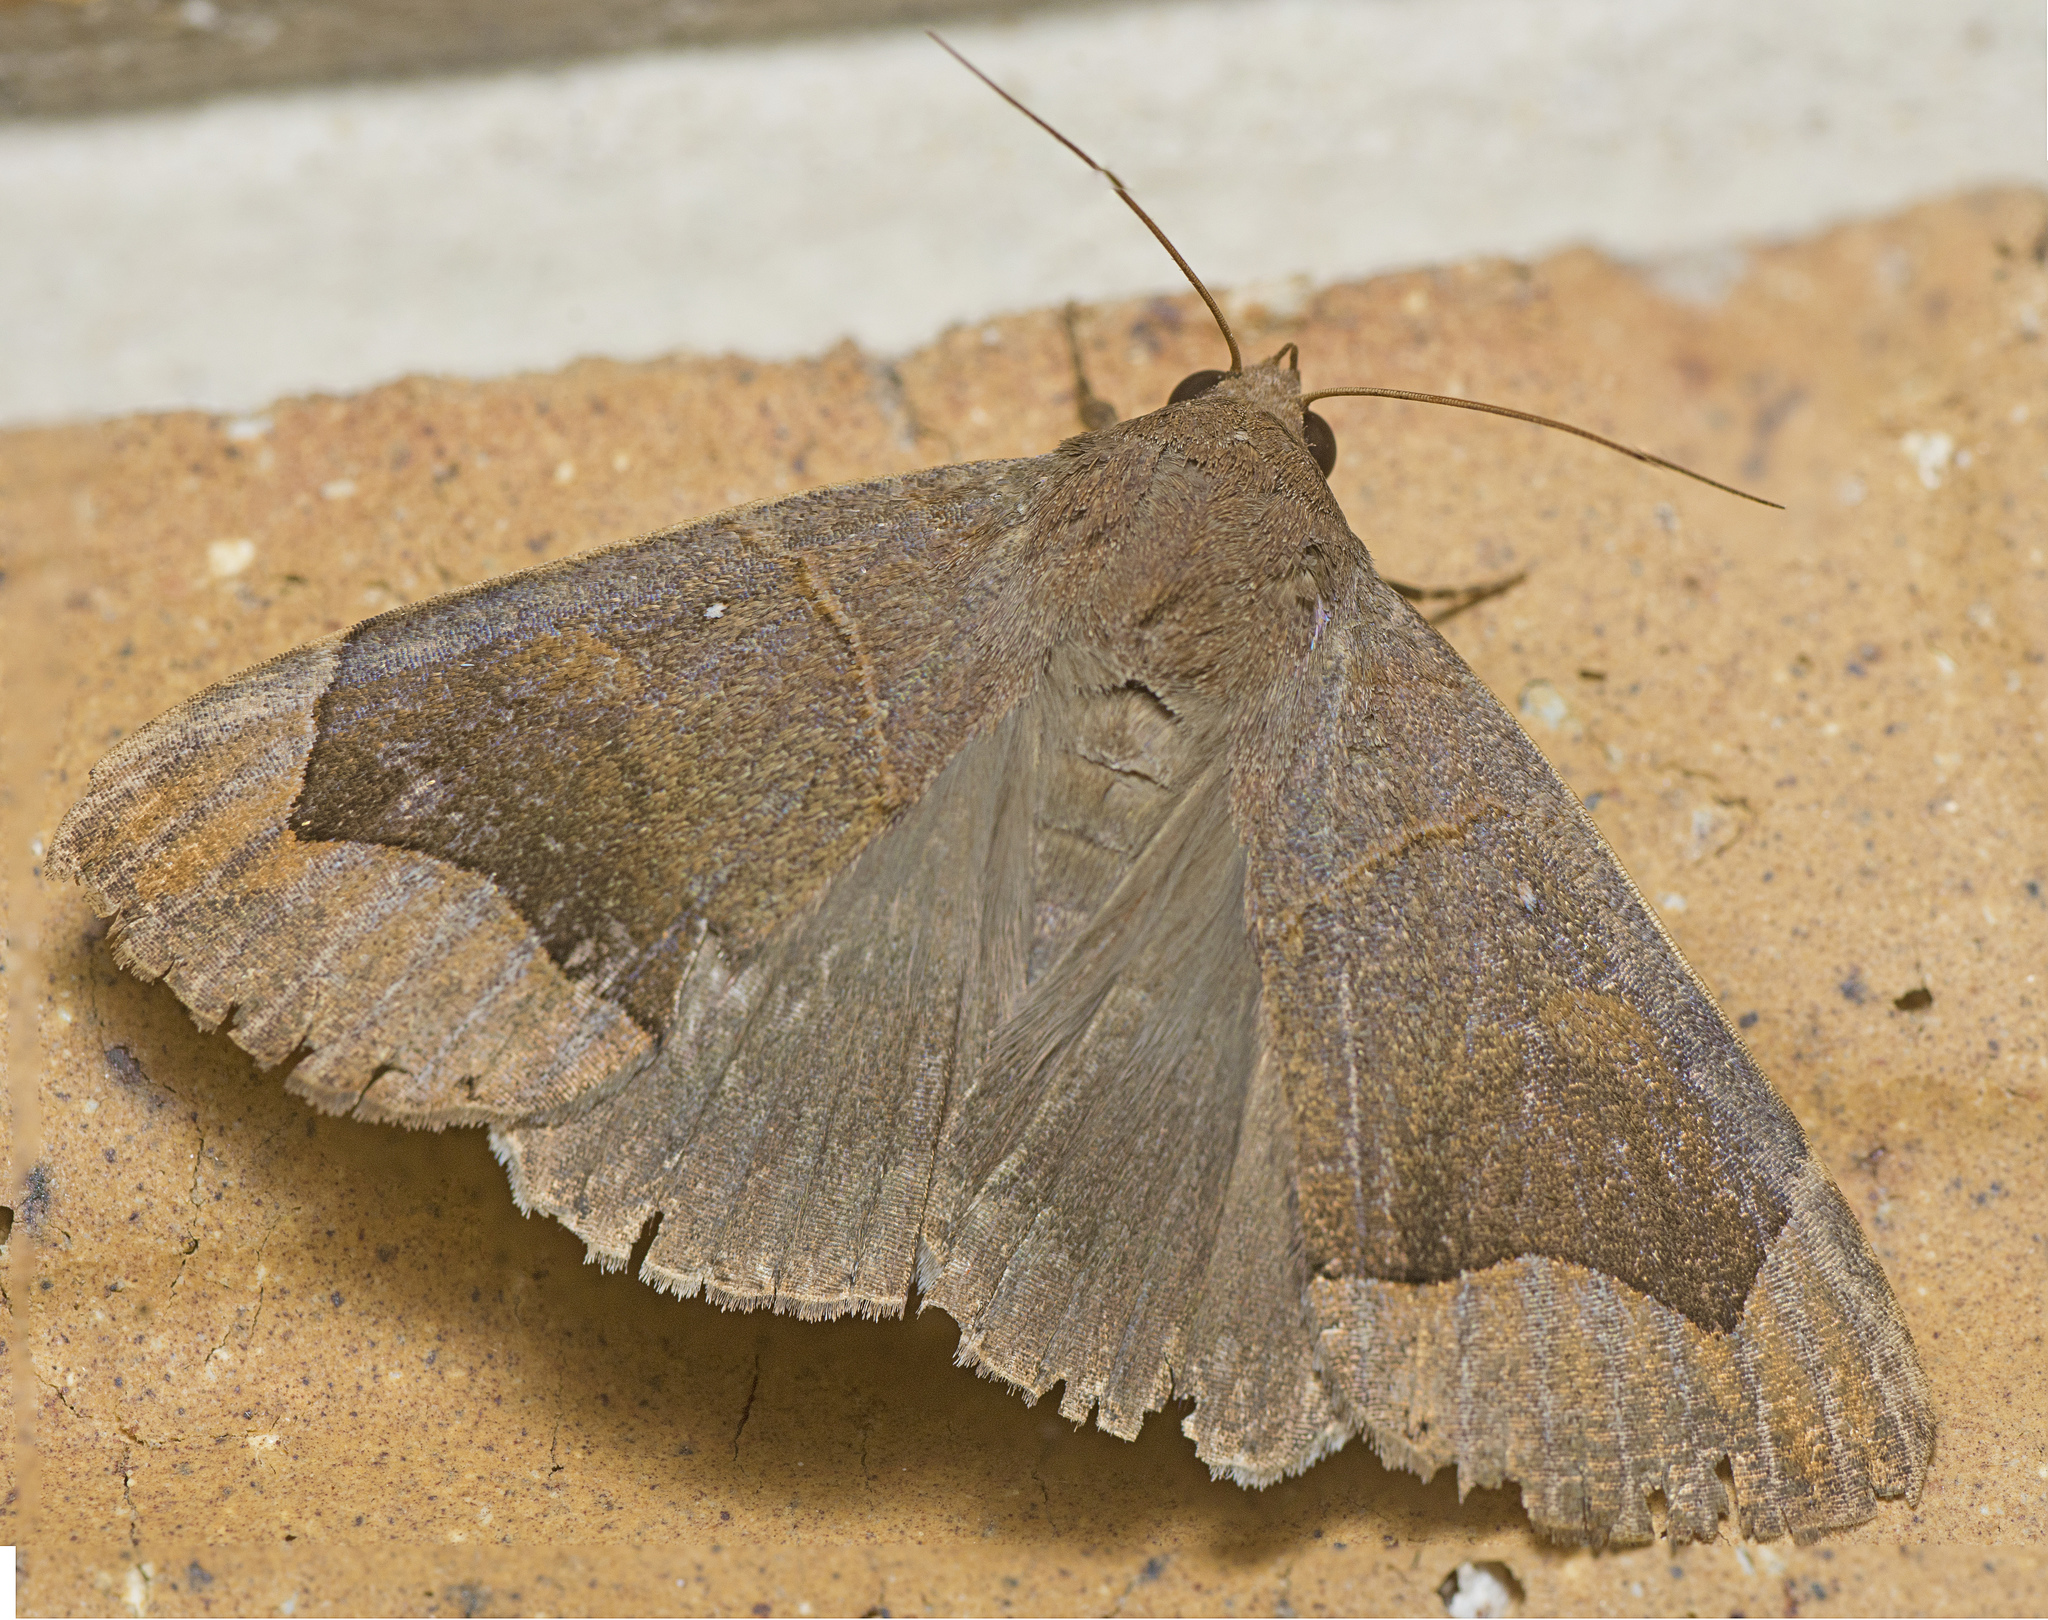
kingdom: Animalia
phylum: Arthropoda
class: Insecta
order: Lepidoptera
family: Erebidae
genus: Dysgonia
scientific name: Dysgonia monogona
